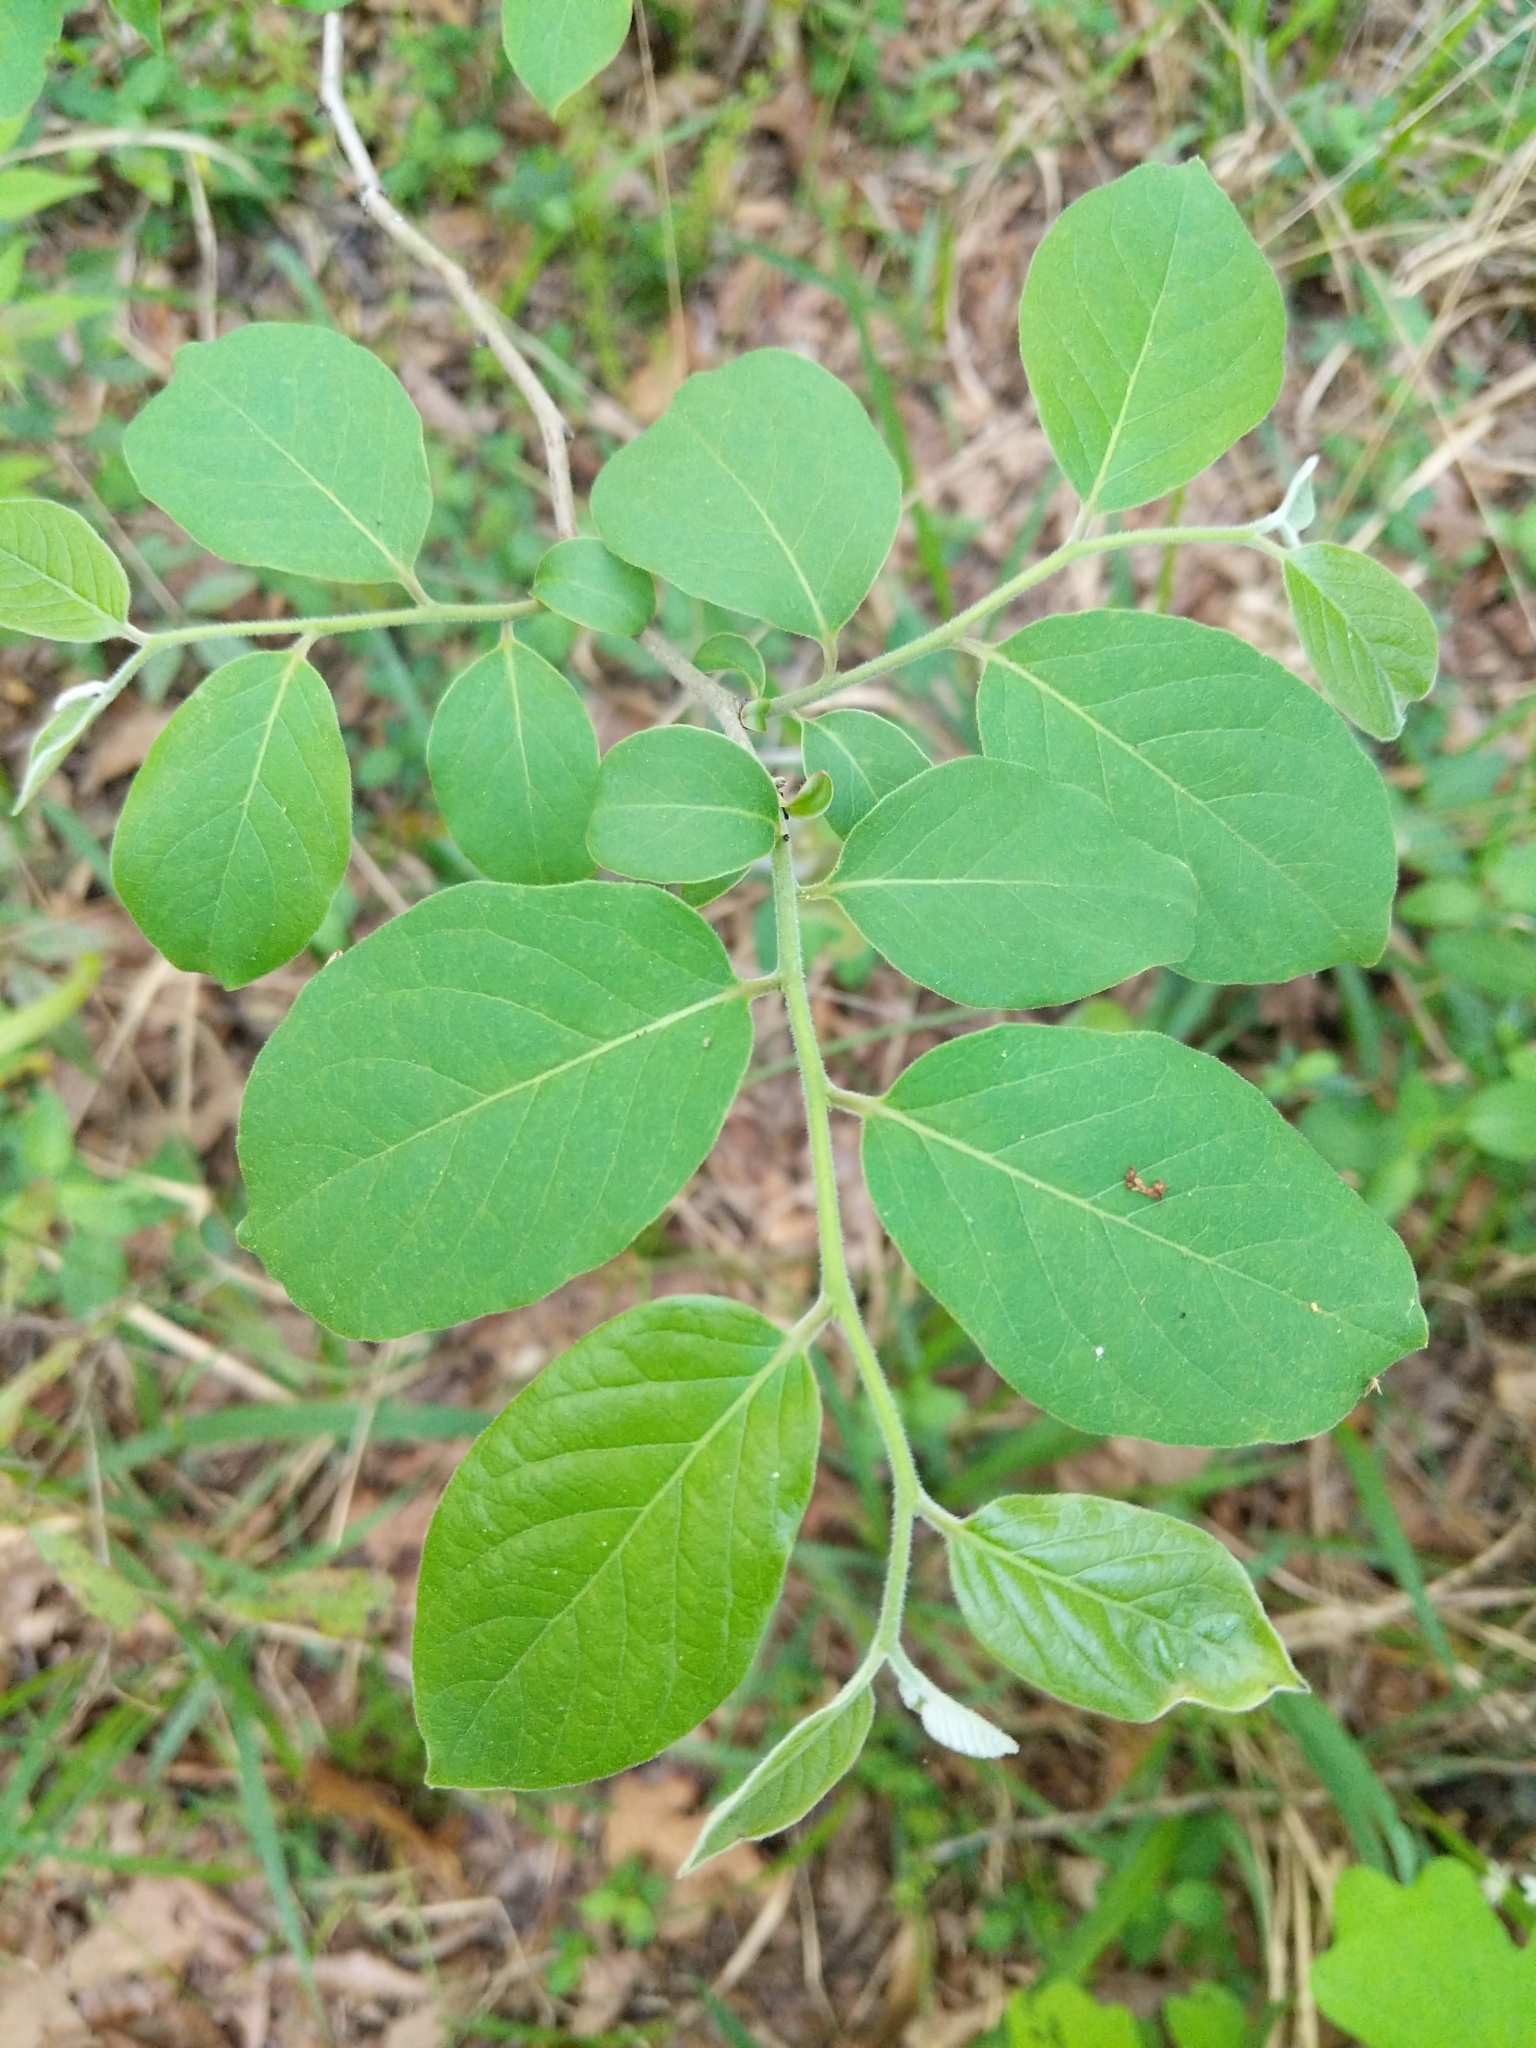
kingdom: Plantae
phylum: Tracheophyta
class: Magnoliopsida
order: Ericales
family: Ebenaceae
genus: Diospyros
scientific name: Diospyros virginiana
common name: Persimmon
